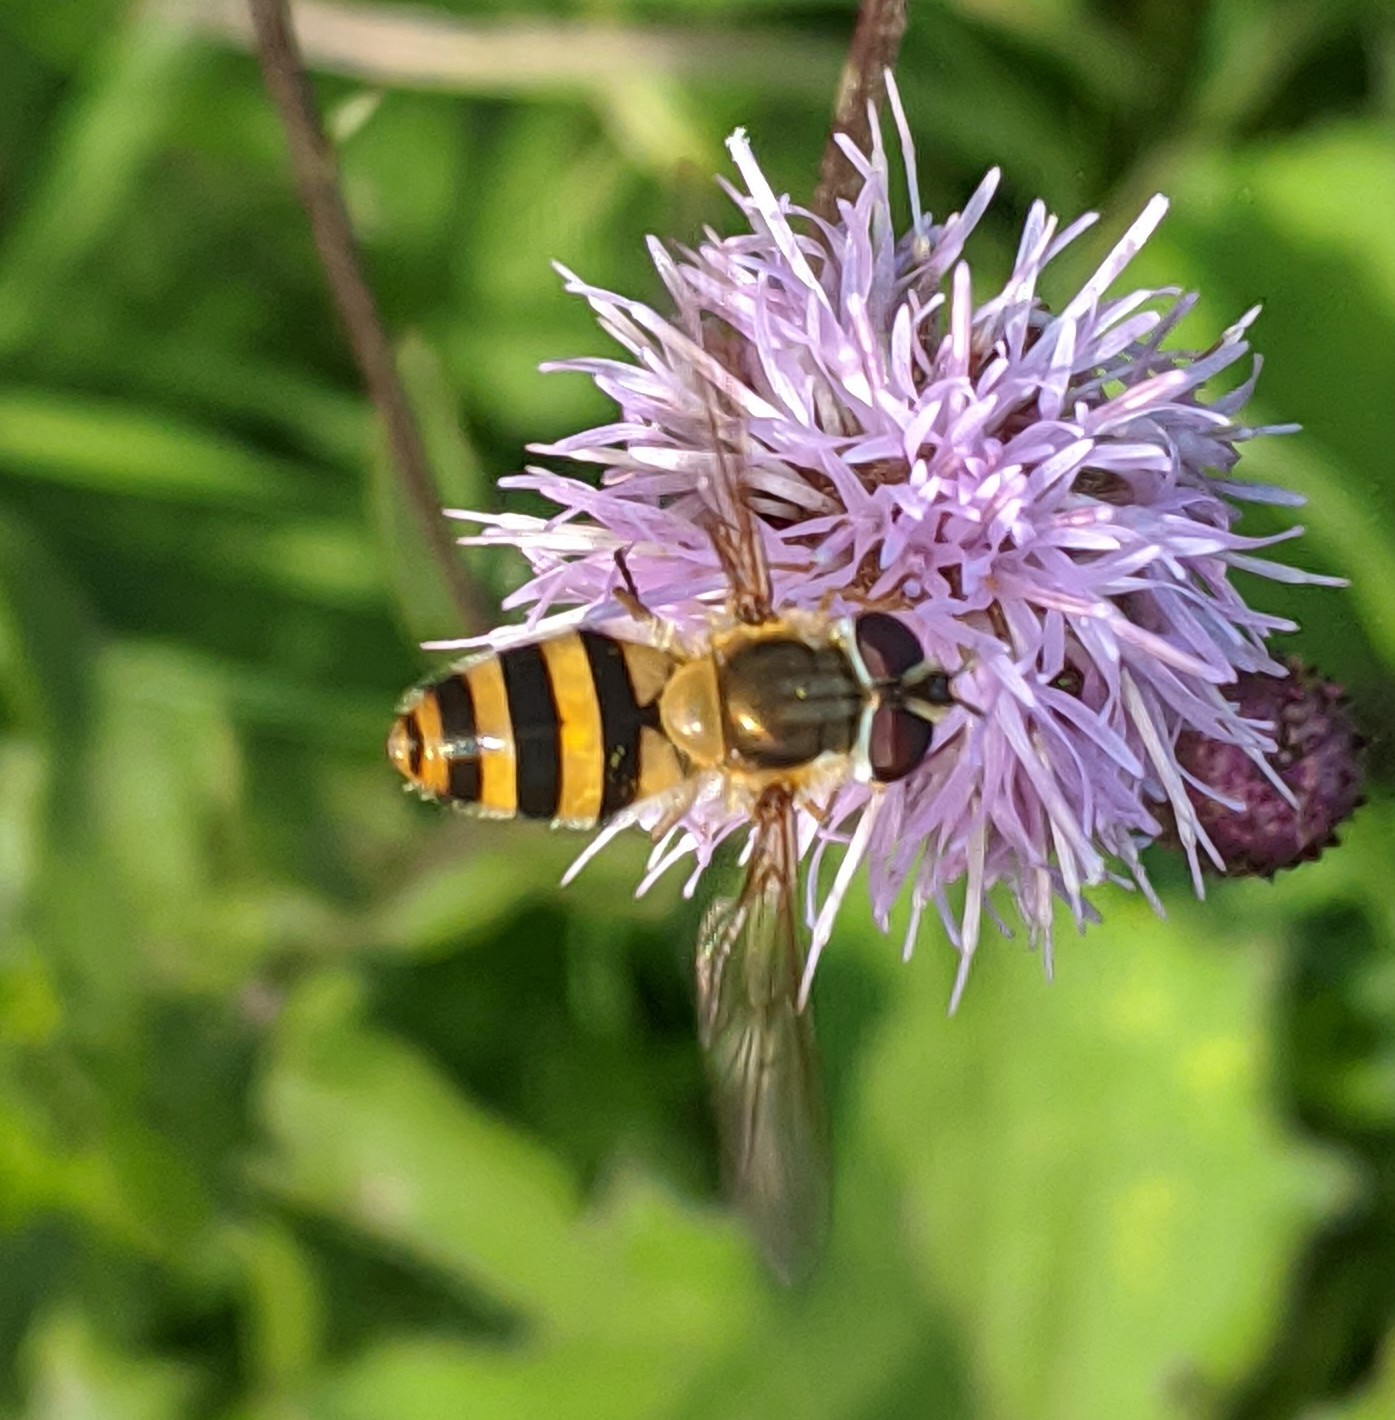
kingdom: Animalia
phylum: Arthropoda
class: Insecta
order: Diptera
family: Syrphidae
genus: Epistrophe
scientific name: Epistrophe grossulariae
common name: Black-horned smoothtail
